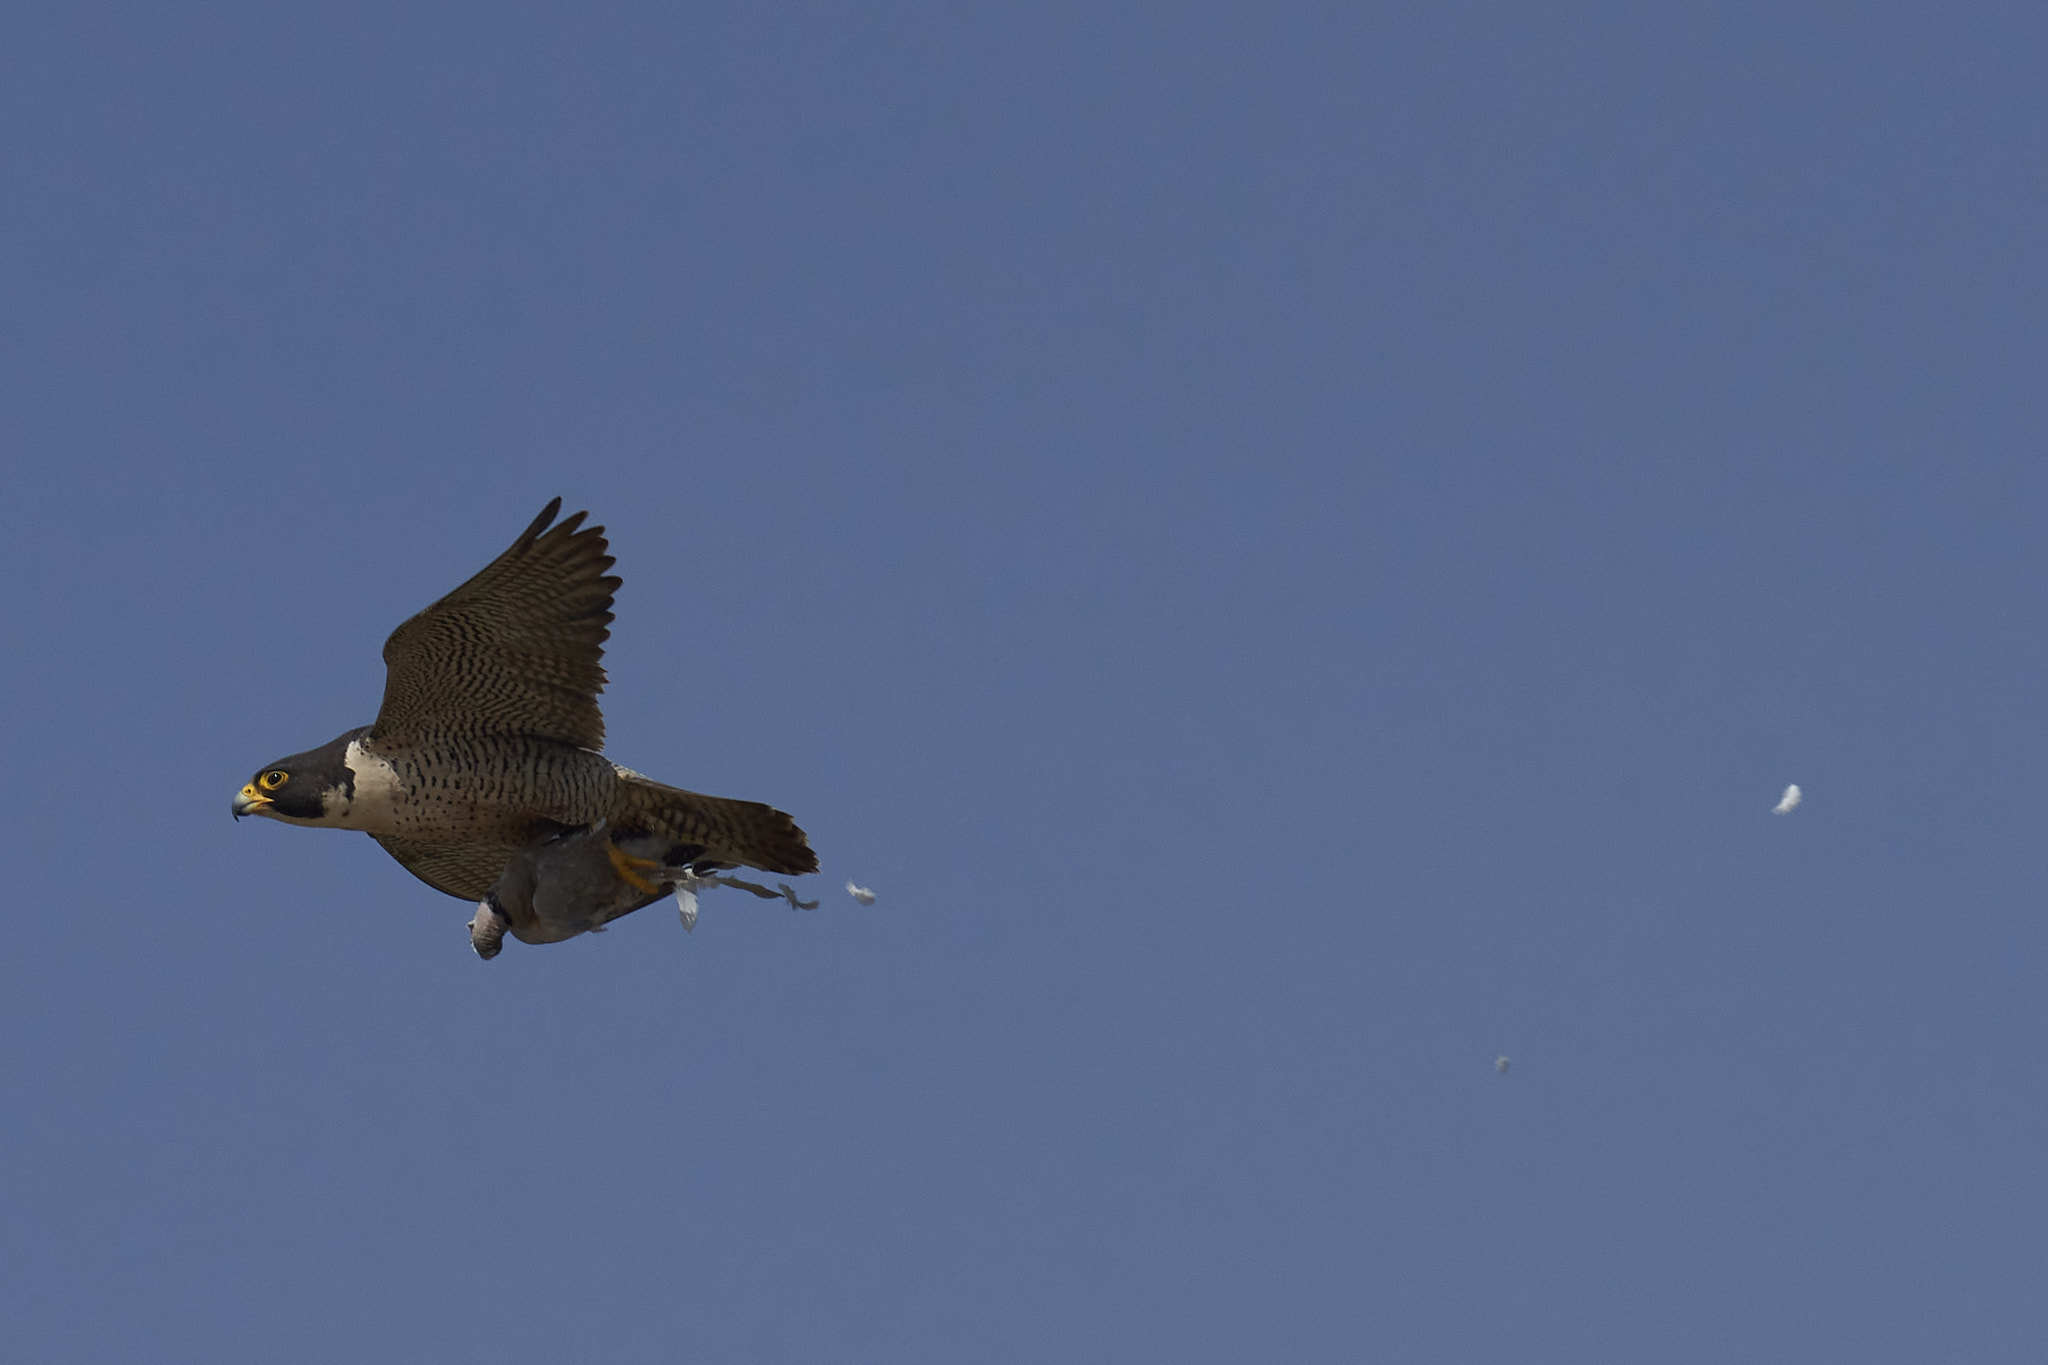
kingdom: Animalia
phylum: Chordata
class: Aves
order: Falconiformes
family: Falconidae
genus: Falco
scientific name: Falco peregrinus
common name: Peregrine falcon
